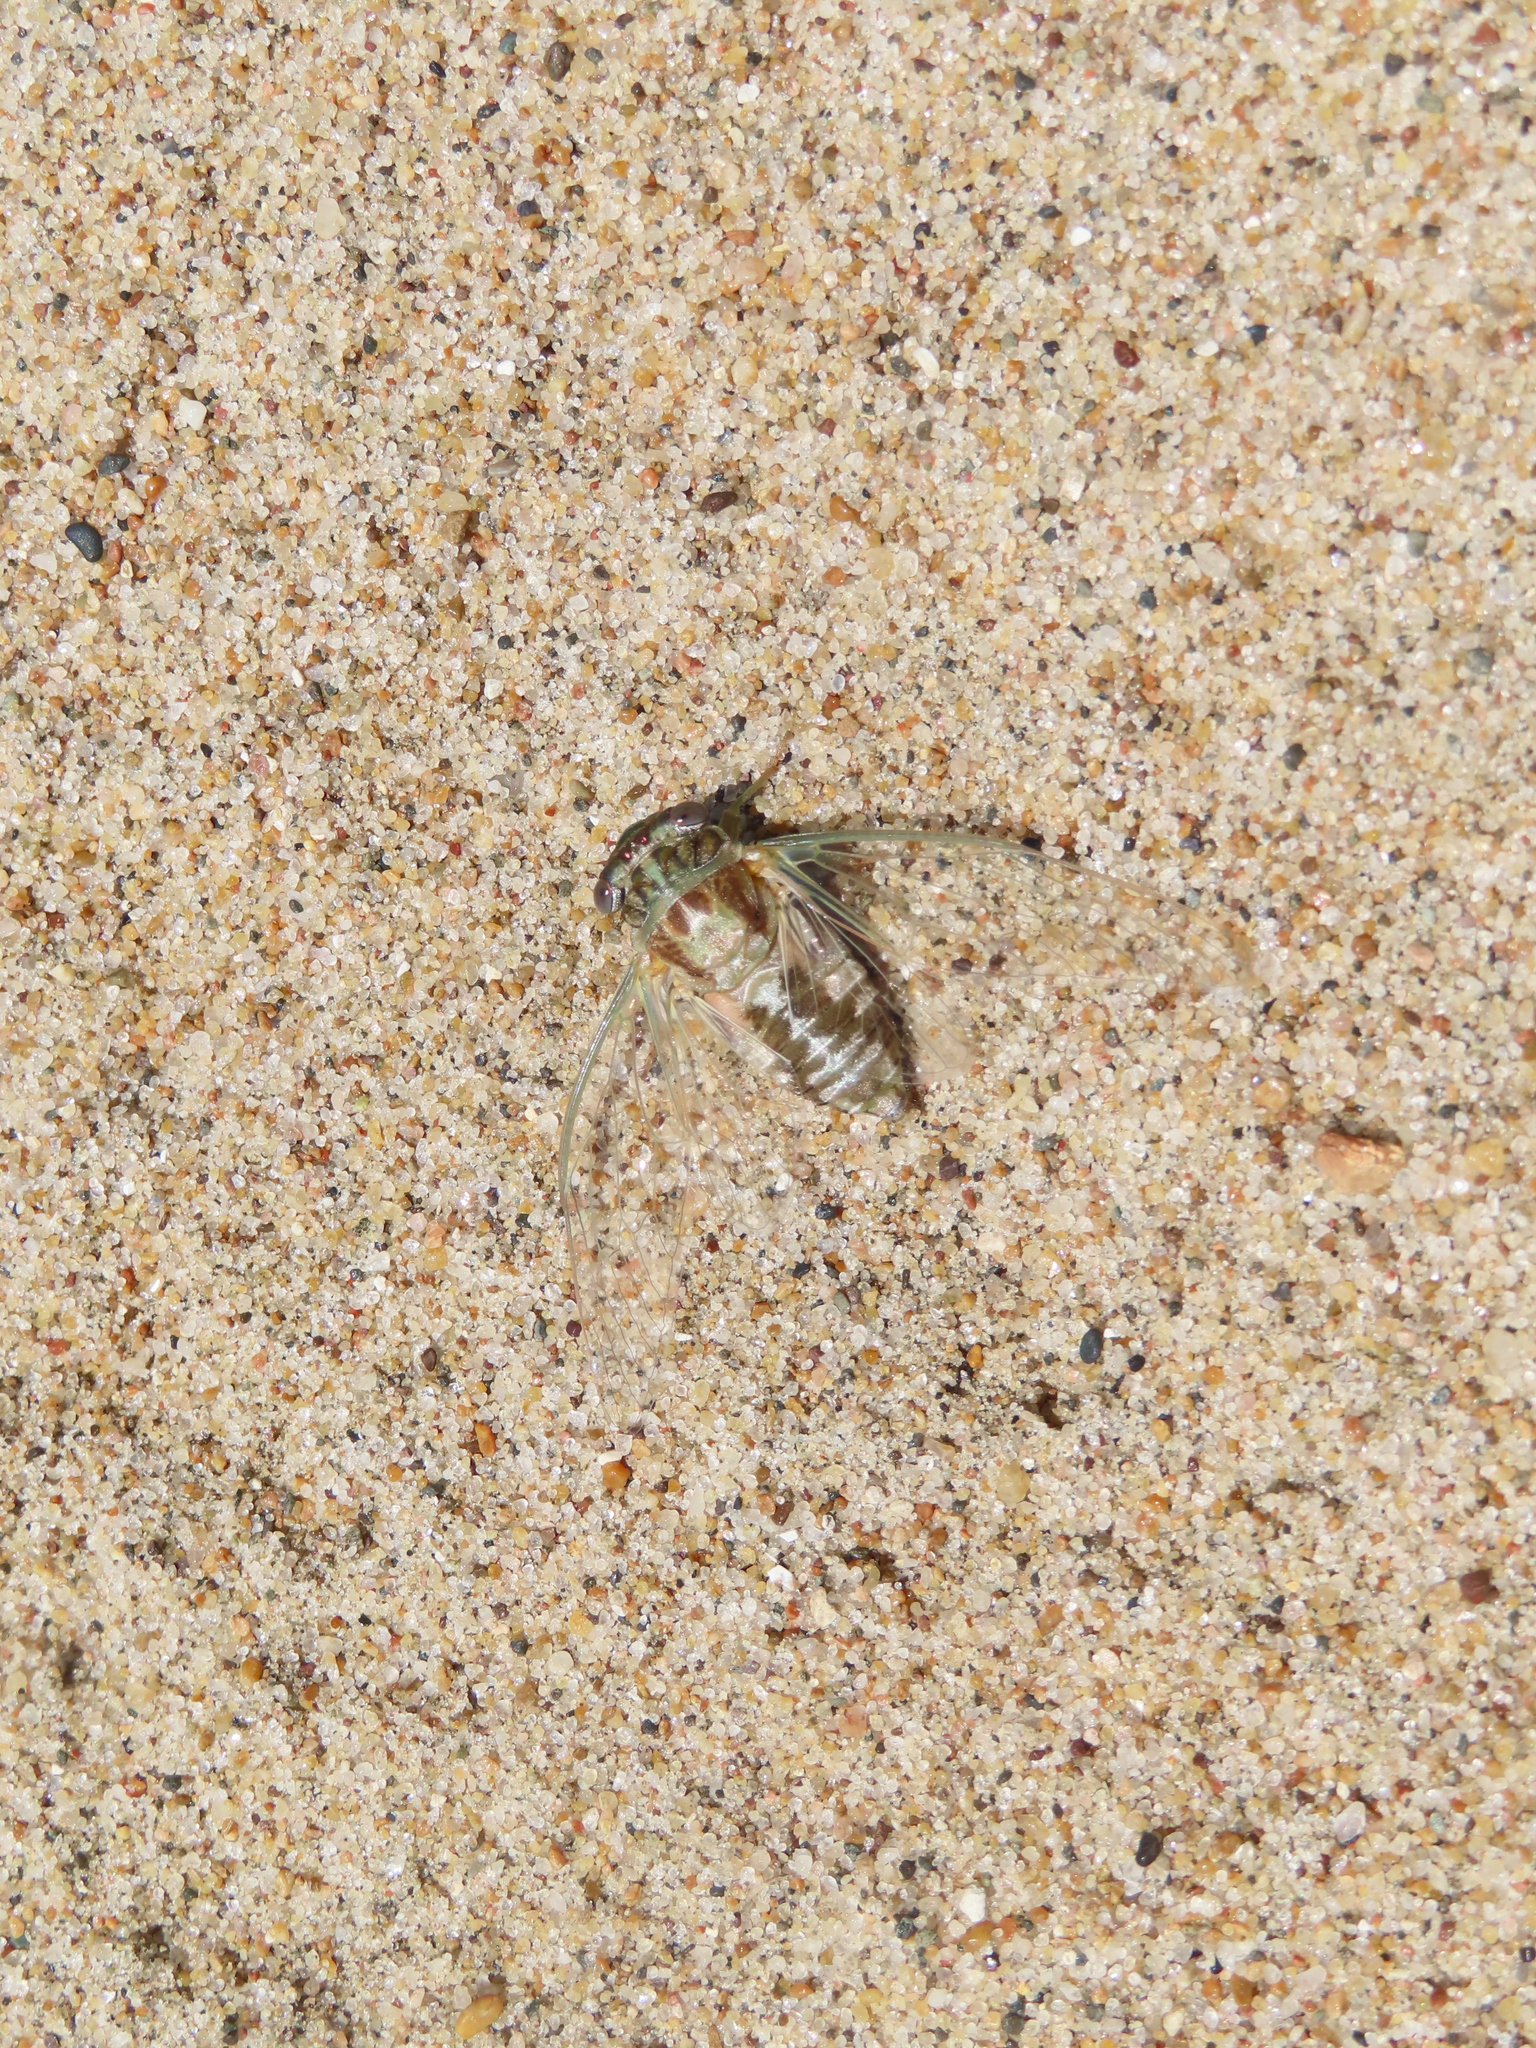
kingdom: Animalia
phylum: Arthropoda
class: Insecta
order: Hemiptera
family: Cicadidae
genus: Diceroprocta
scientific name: Diceroprocta vitripennis
